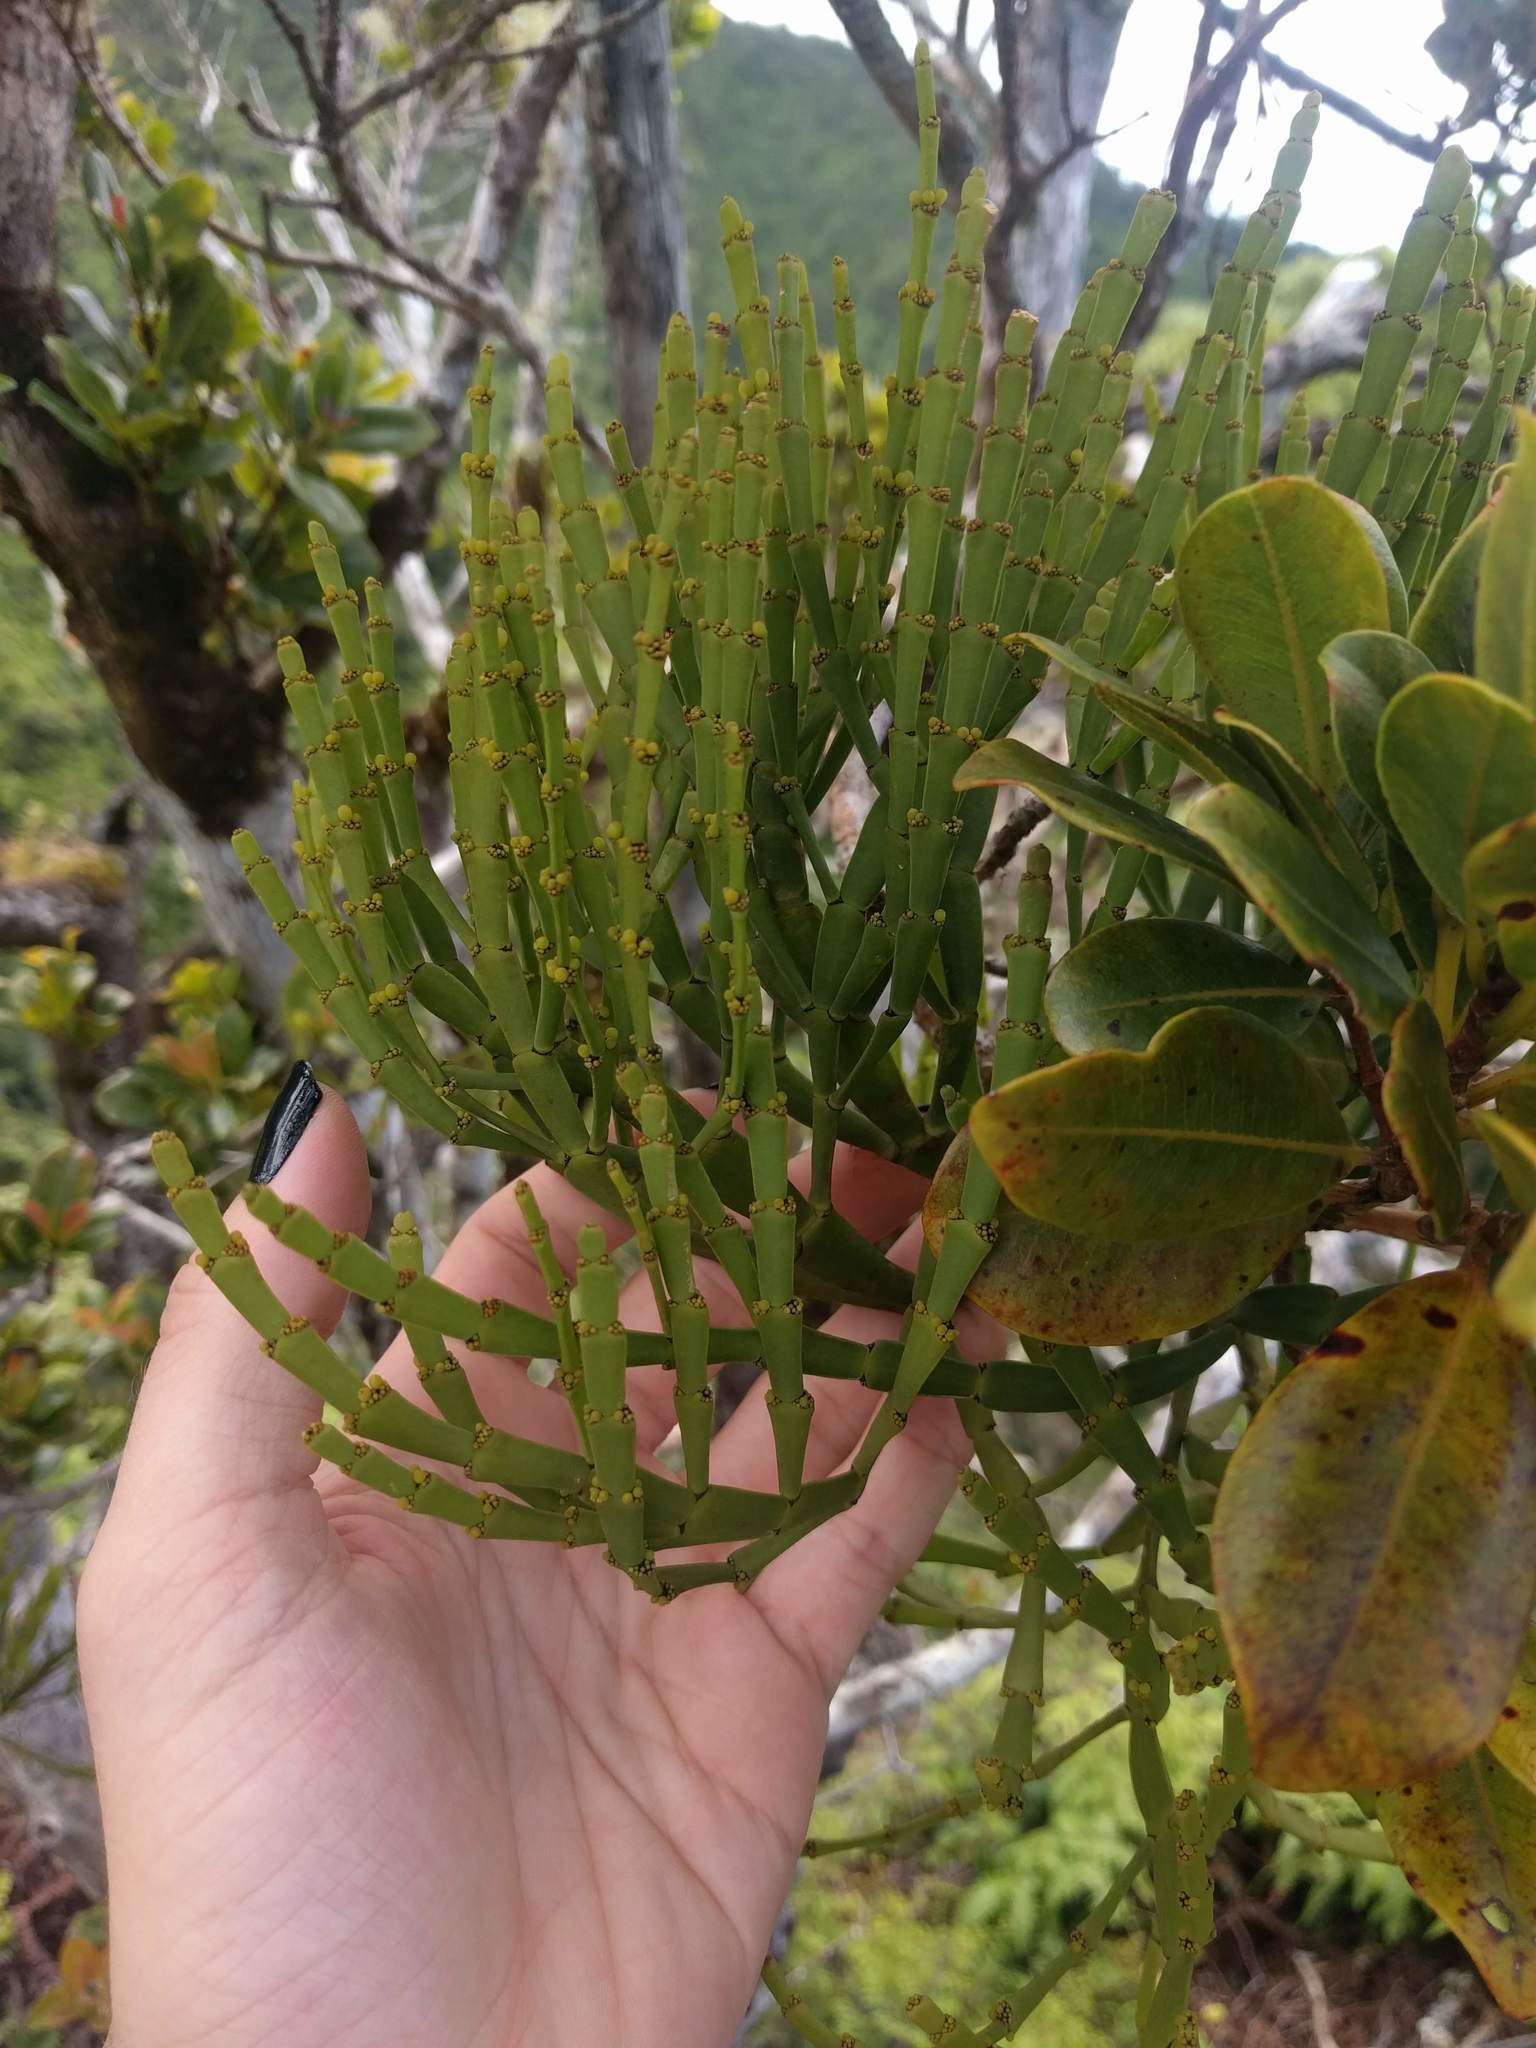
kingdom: Plantae
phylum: Tracheophyta
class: Magnoliopsida
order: Santalales
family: Viscaceae
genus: Korthalsella
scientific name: Korthalsella complanata
